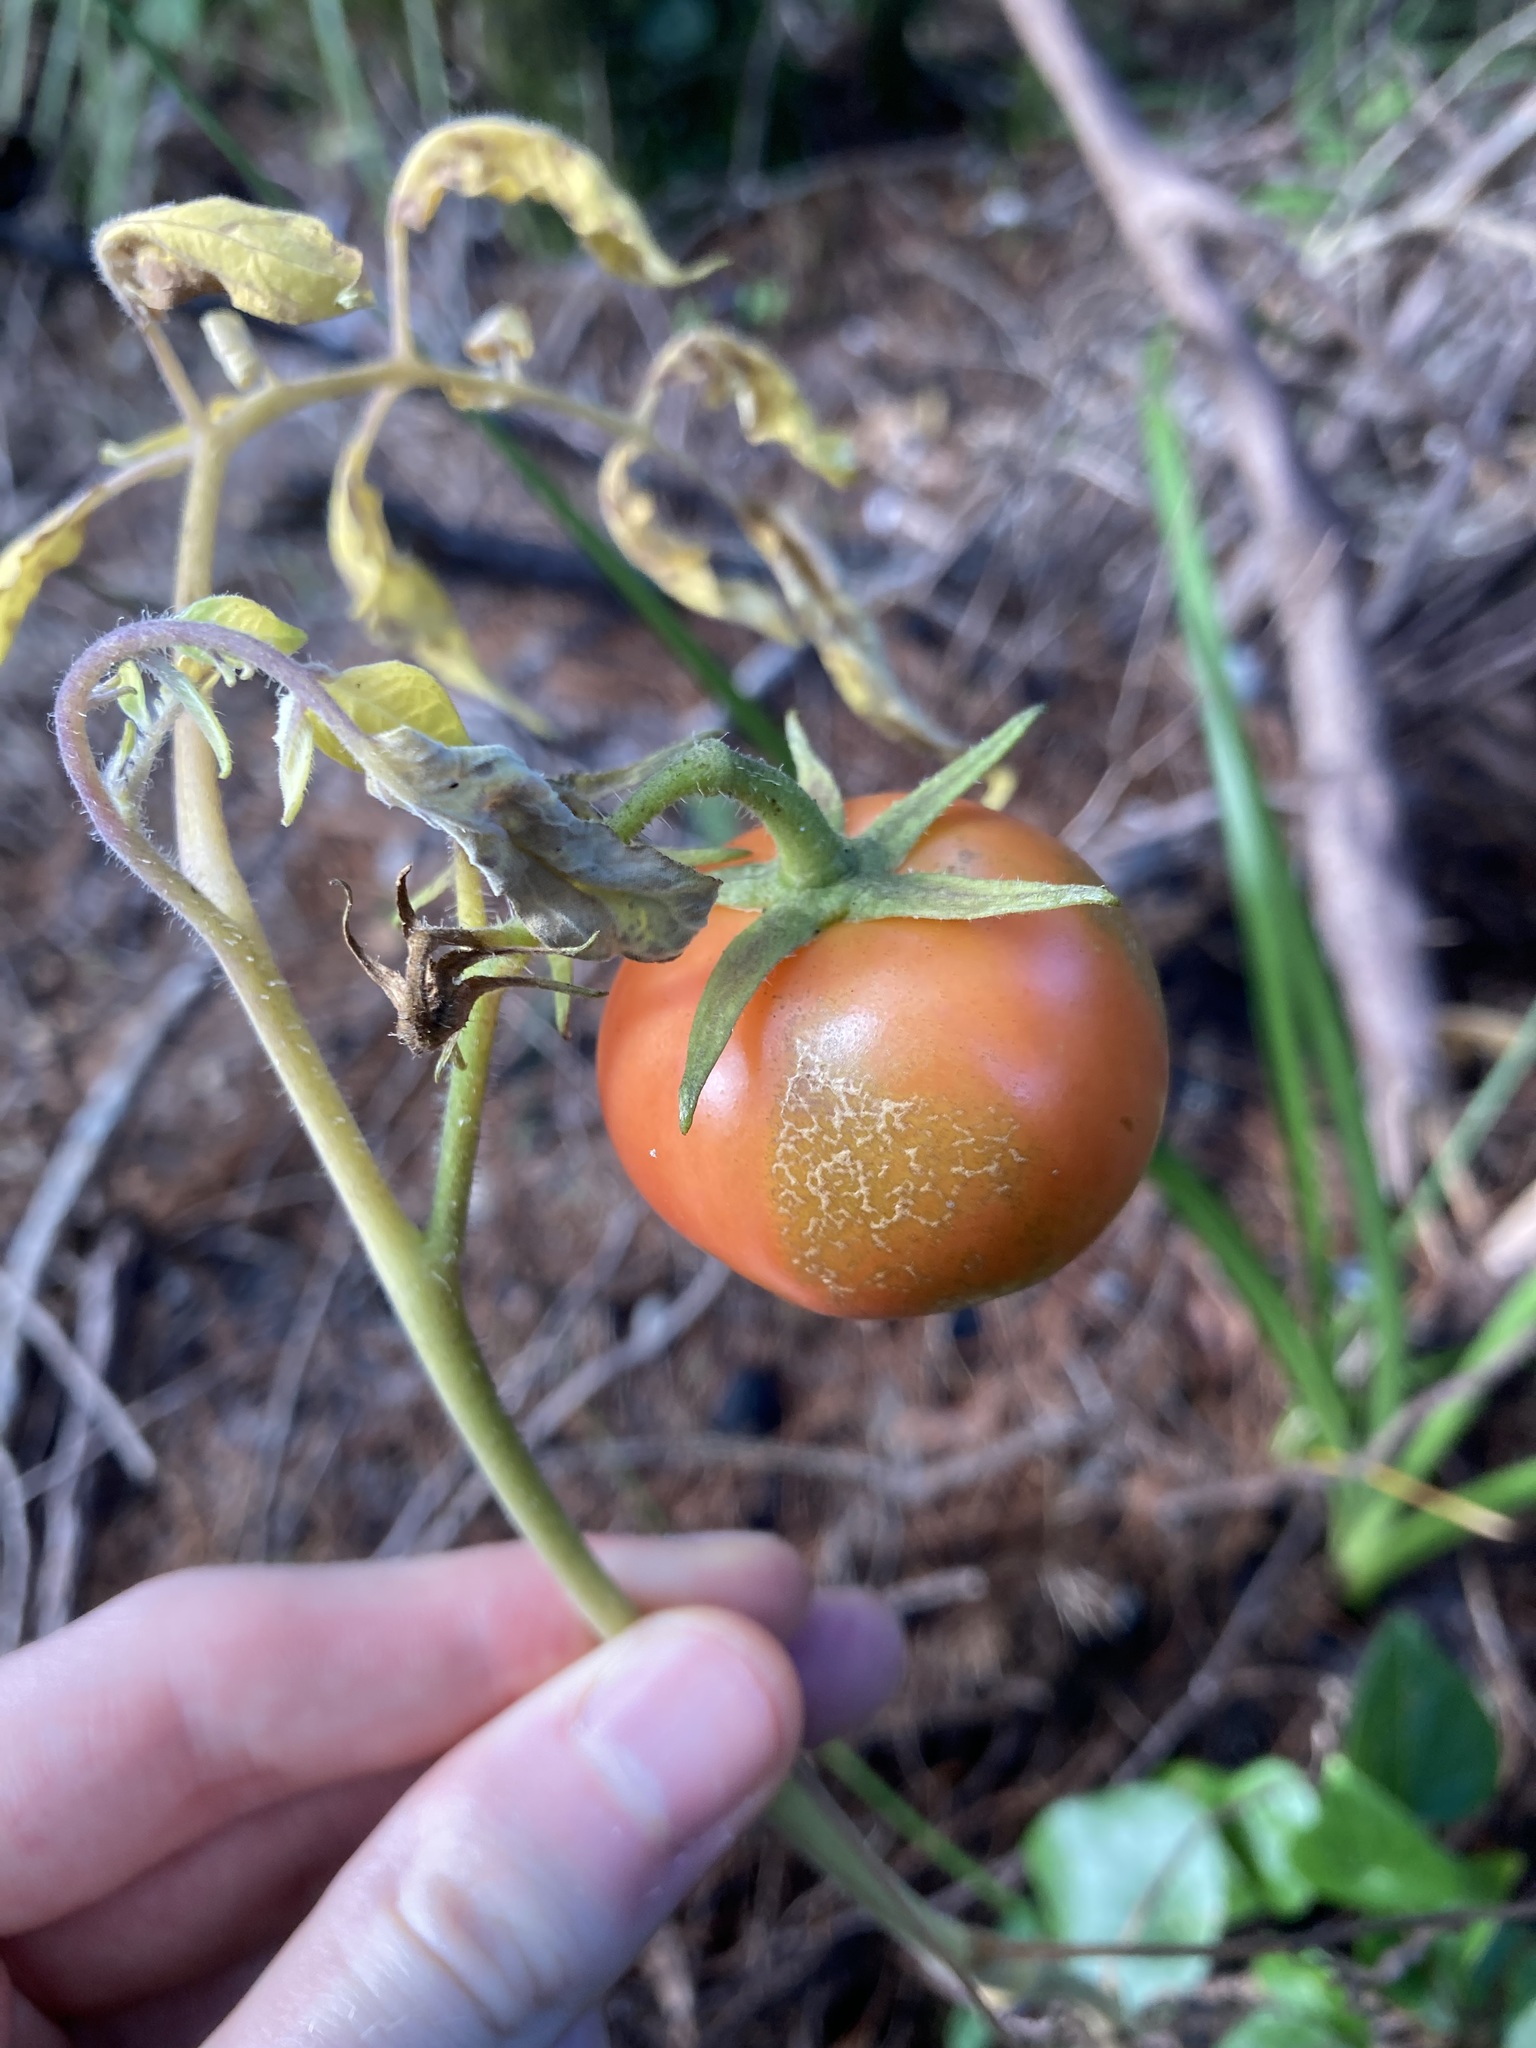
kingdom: Plantae
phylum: Tracheophyta
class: Magnoliopsida
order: Solanales
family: Solanaceae
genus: Solanum
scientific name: Solanum lycopersicum
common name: Garden tomato
